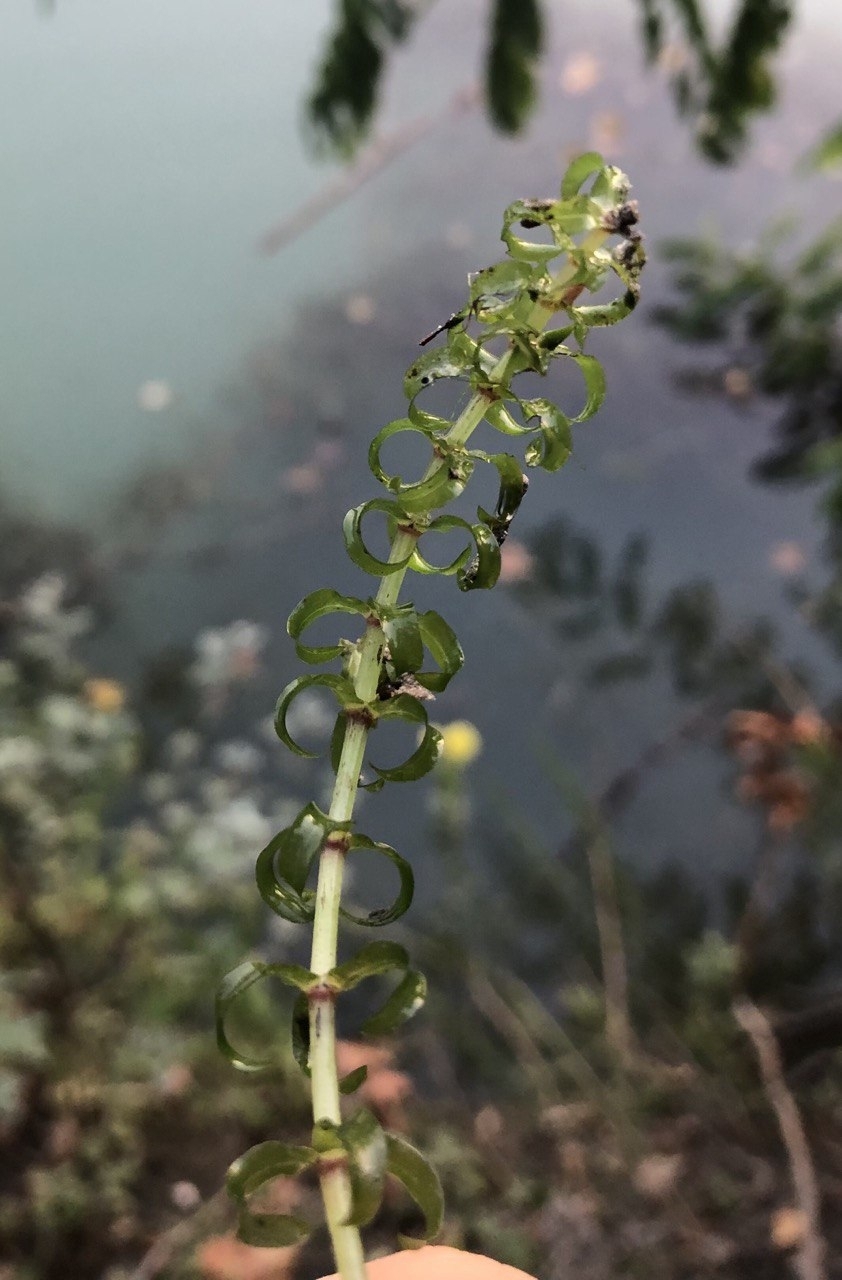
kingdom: Plantae
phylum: Tracheophyta
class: Liliopsida
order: Alismatales
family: Hydrocharitaceae
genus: Elodea
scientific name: Elodea nuttallii
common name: Nuttall's waterweed
